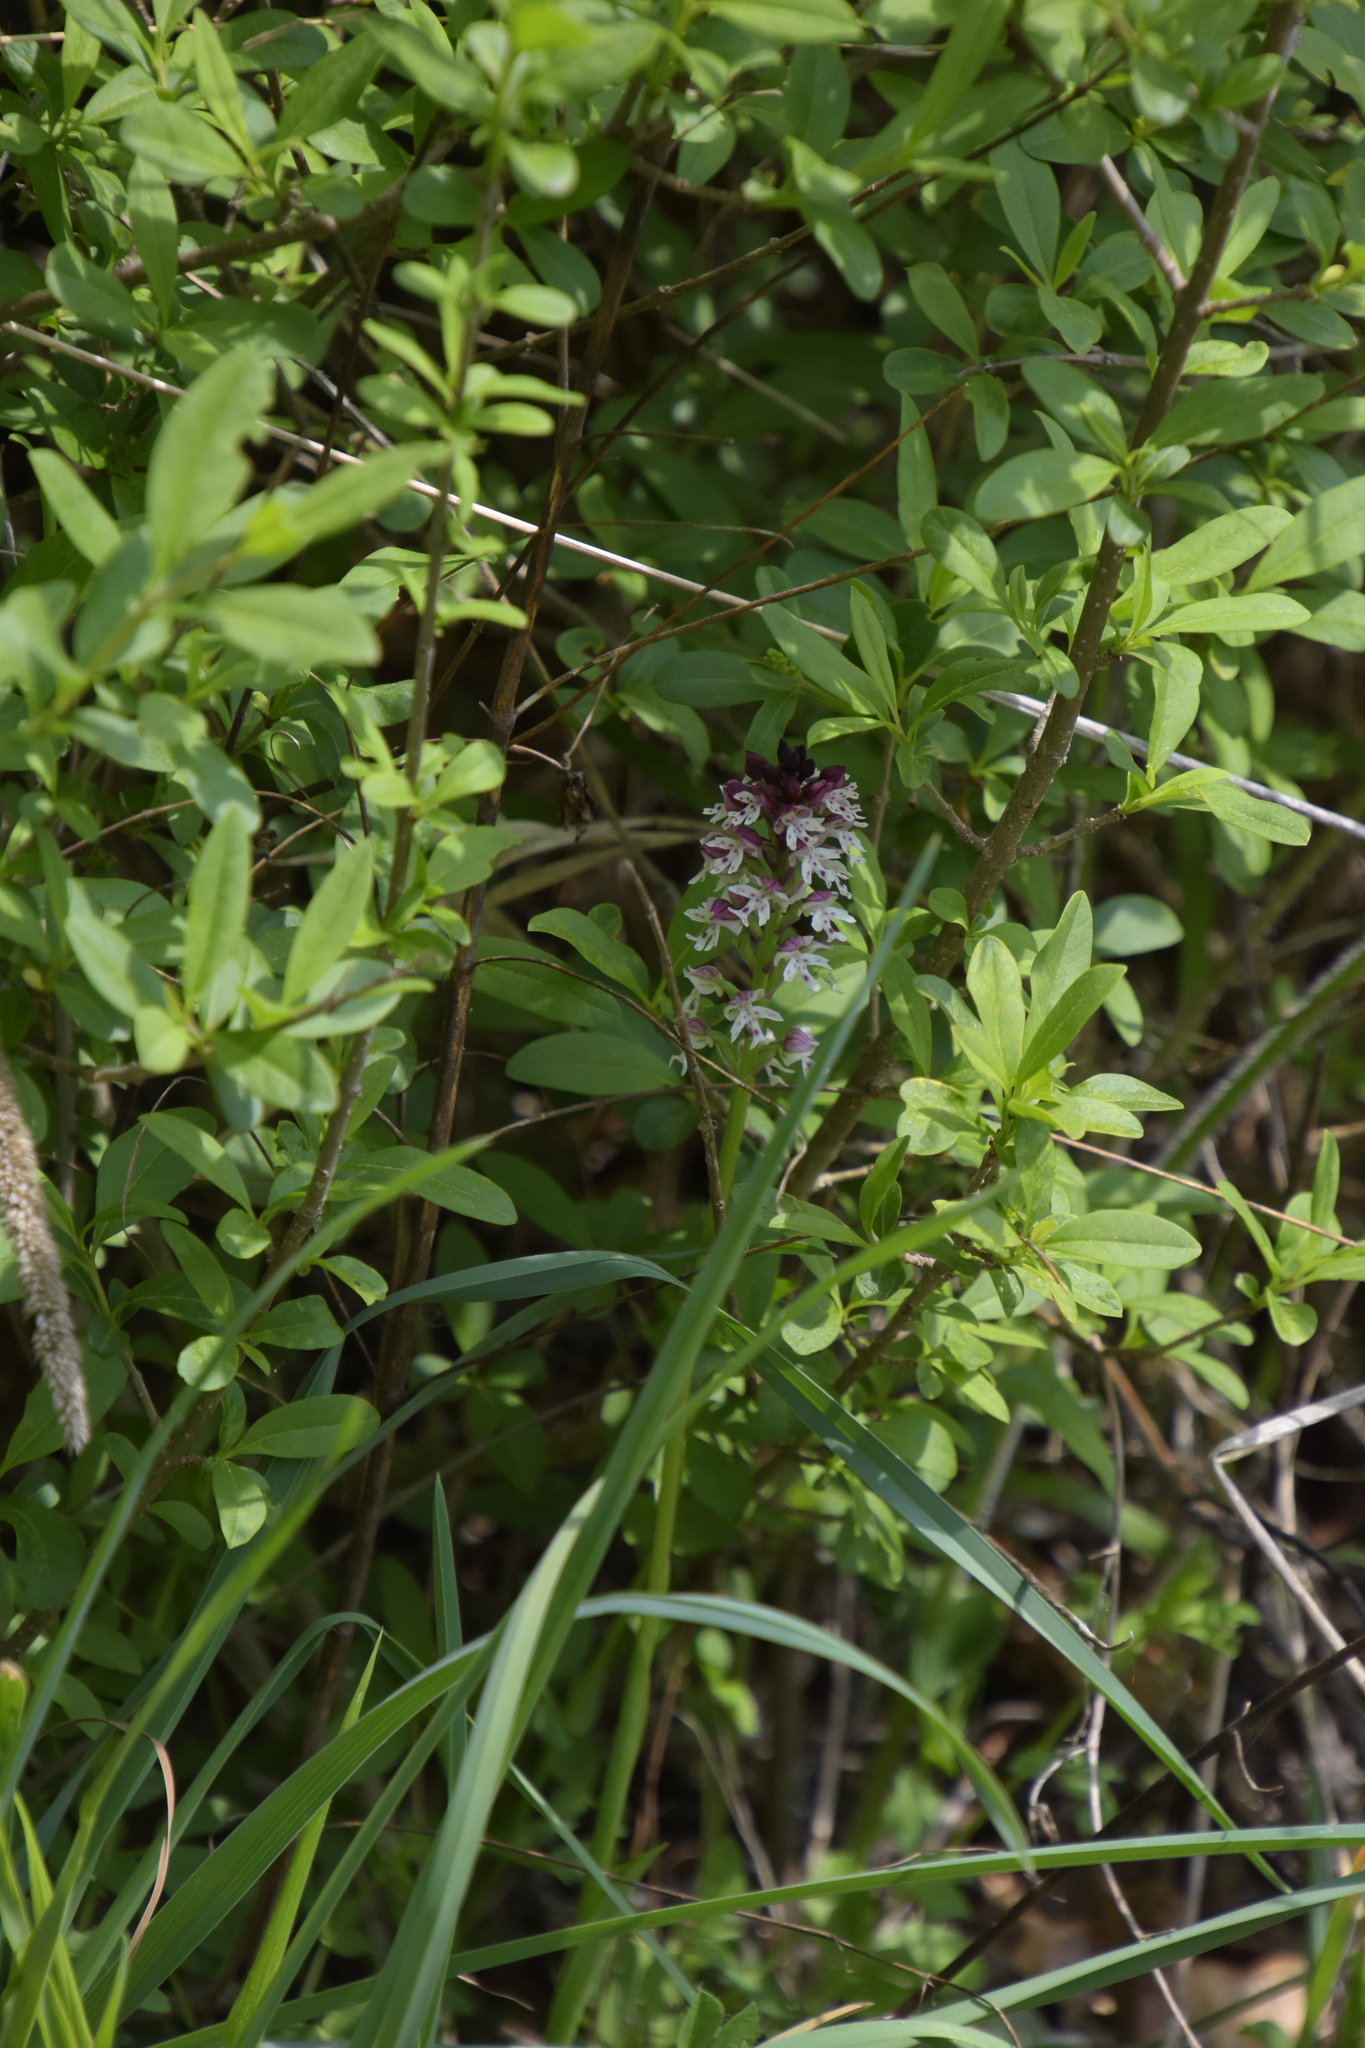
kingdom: Plantae
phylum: Tracheophyta
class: Liliopsida
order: Asparagales
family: Orchidaceae
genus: Neotinea
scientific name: Neotinea ustulata
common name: Burnt orchid
